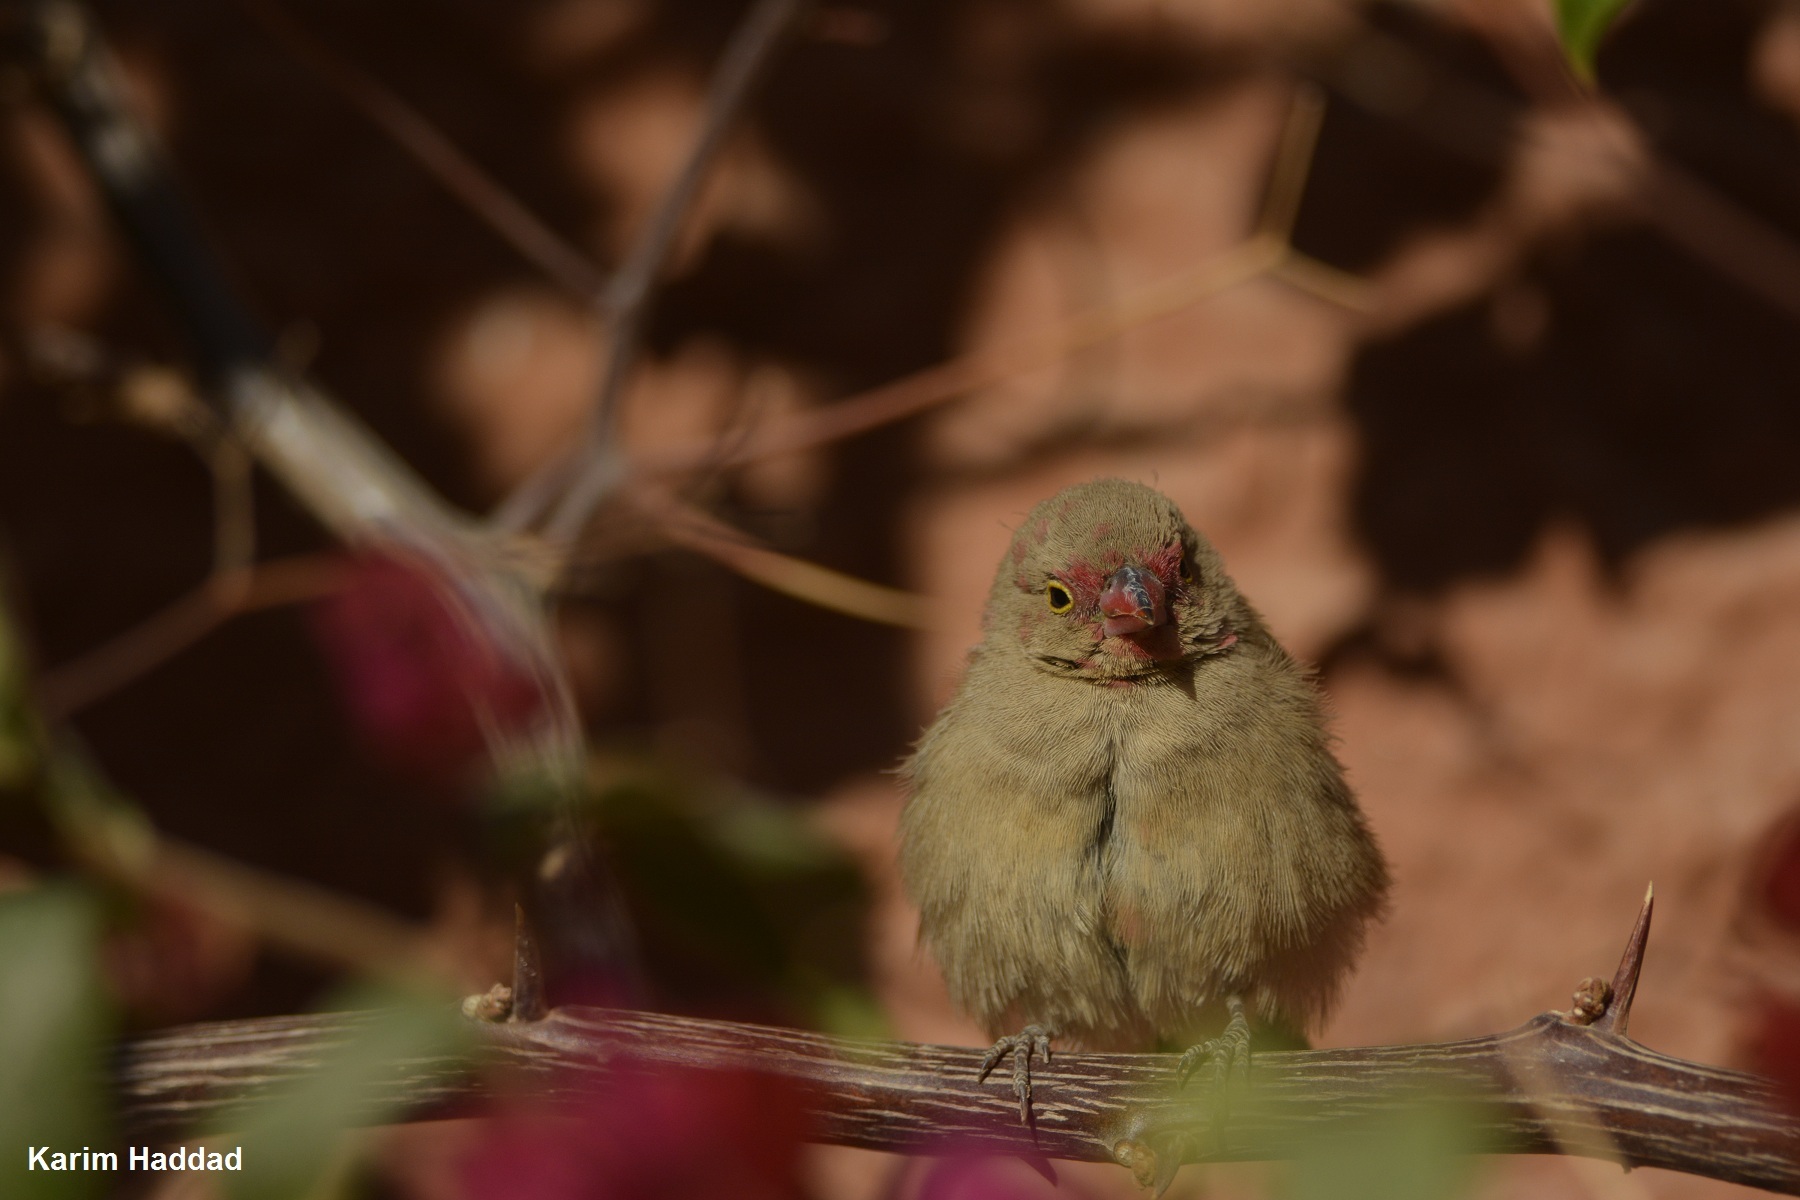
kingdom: Animalia
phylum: Chordata
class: Aves
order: Passeriformes
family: Estrildidae
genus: Lagonosticta
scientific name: Lagonosticta senegala
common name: Red-billed firefinch
